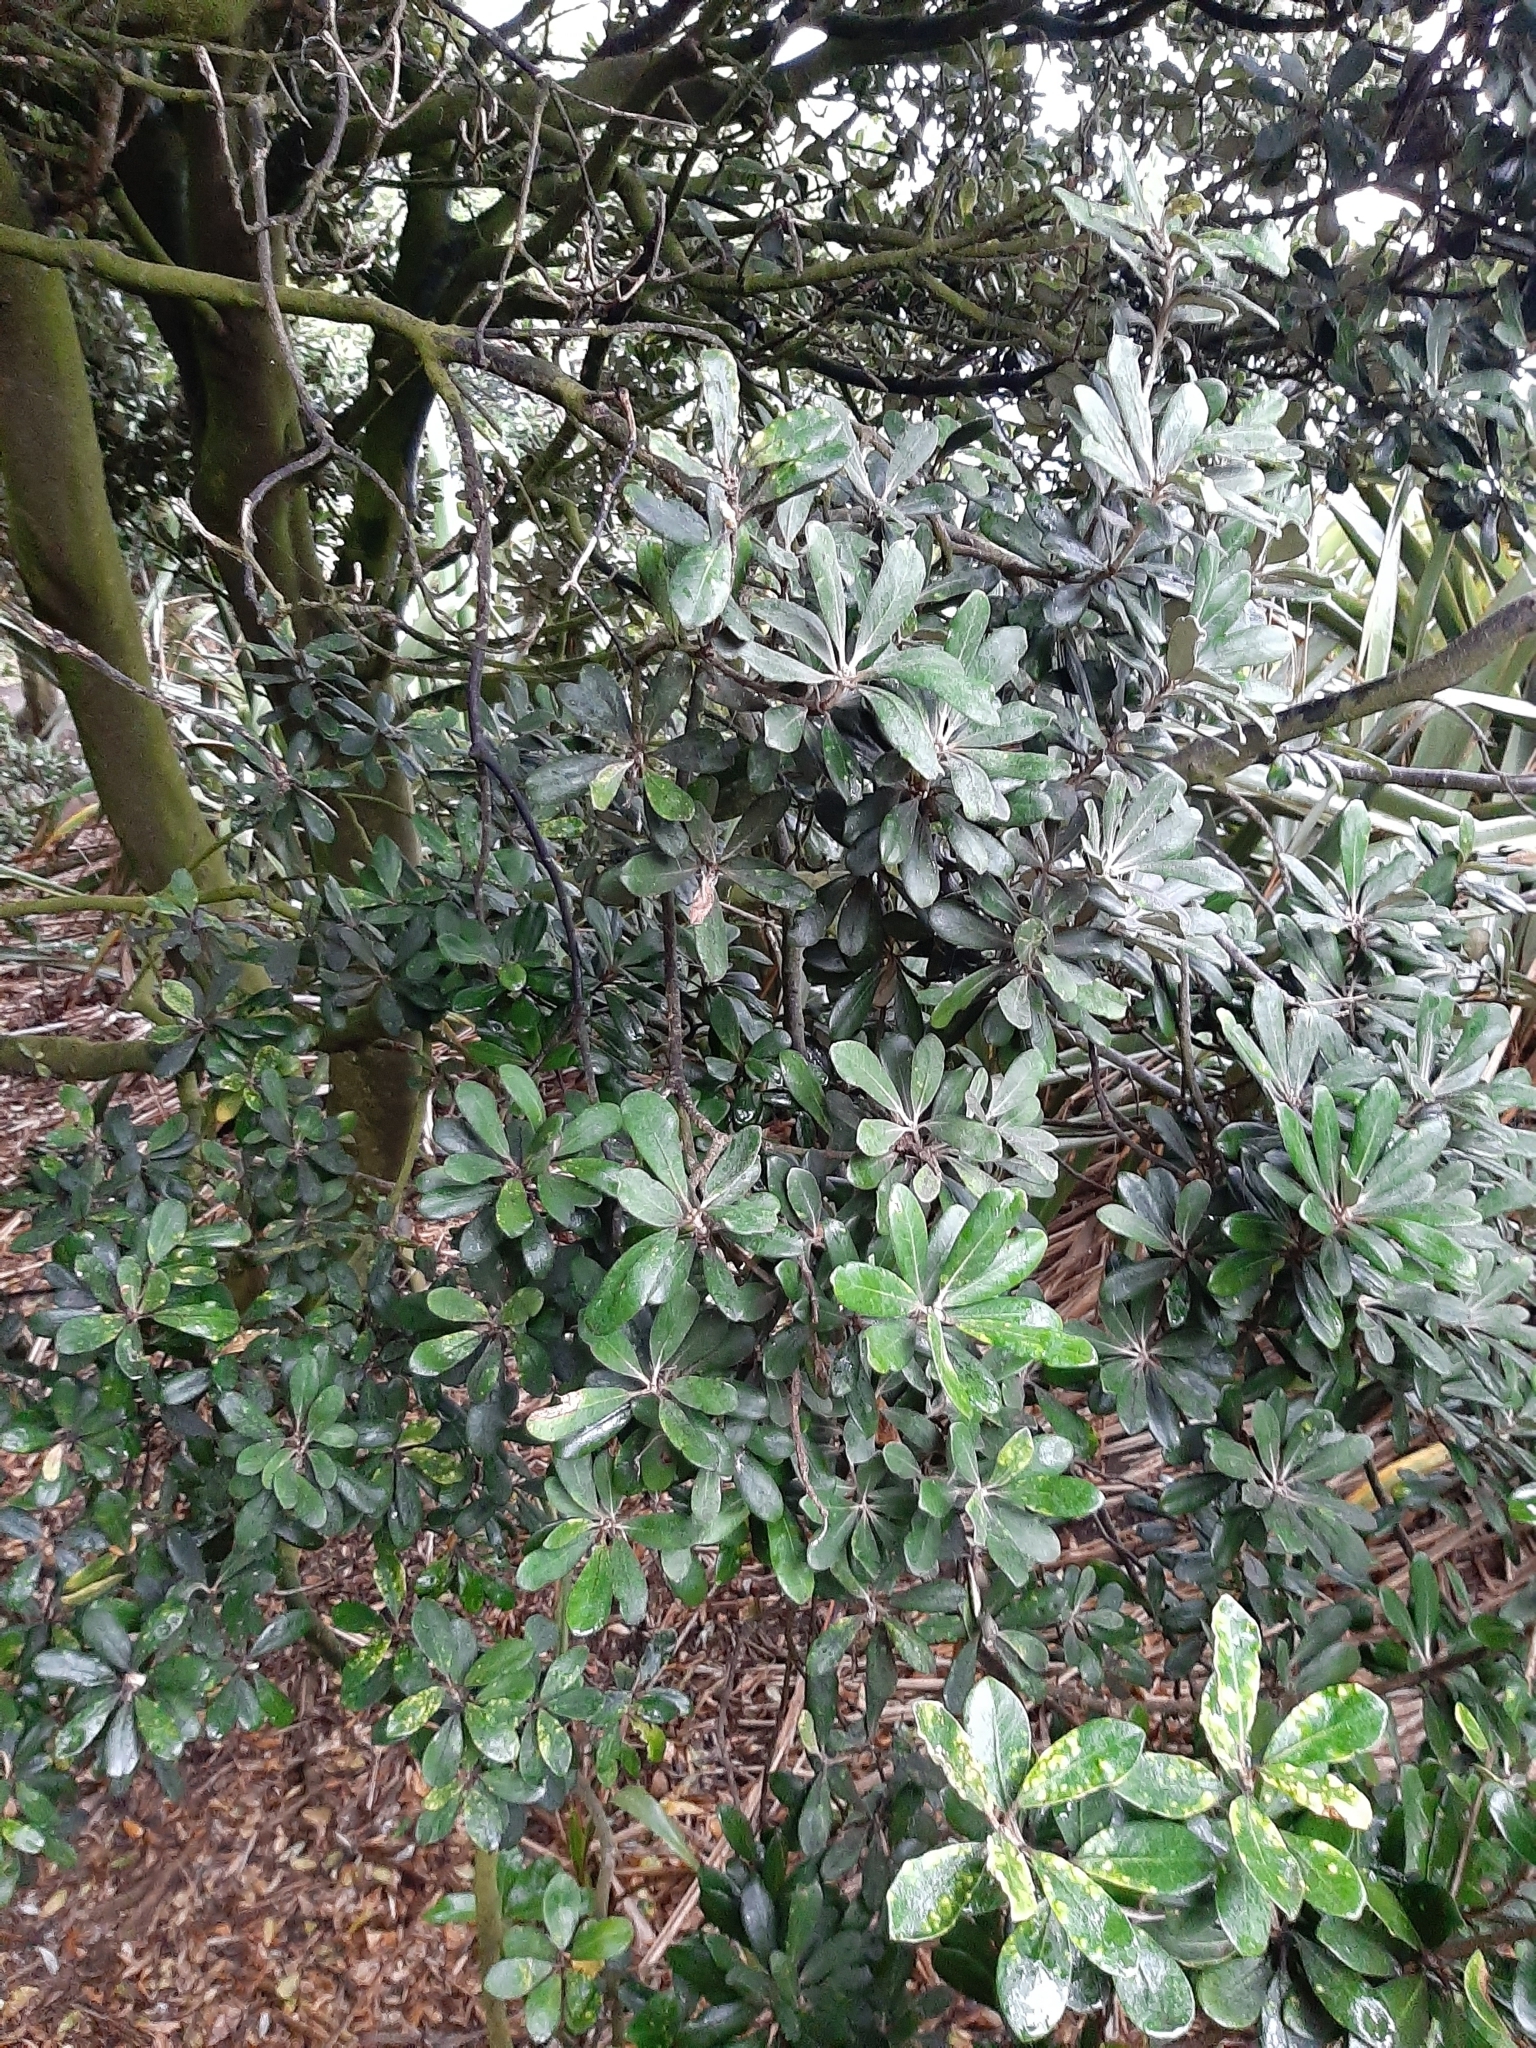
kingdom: Plantae
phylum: Tracheophyta
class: Magnoliopsida
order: Apiales
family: Pittosporaceae
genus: Pittosporum
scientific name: Pittosporum crassifolium
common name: Karo
